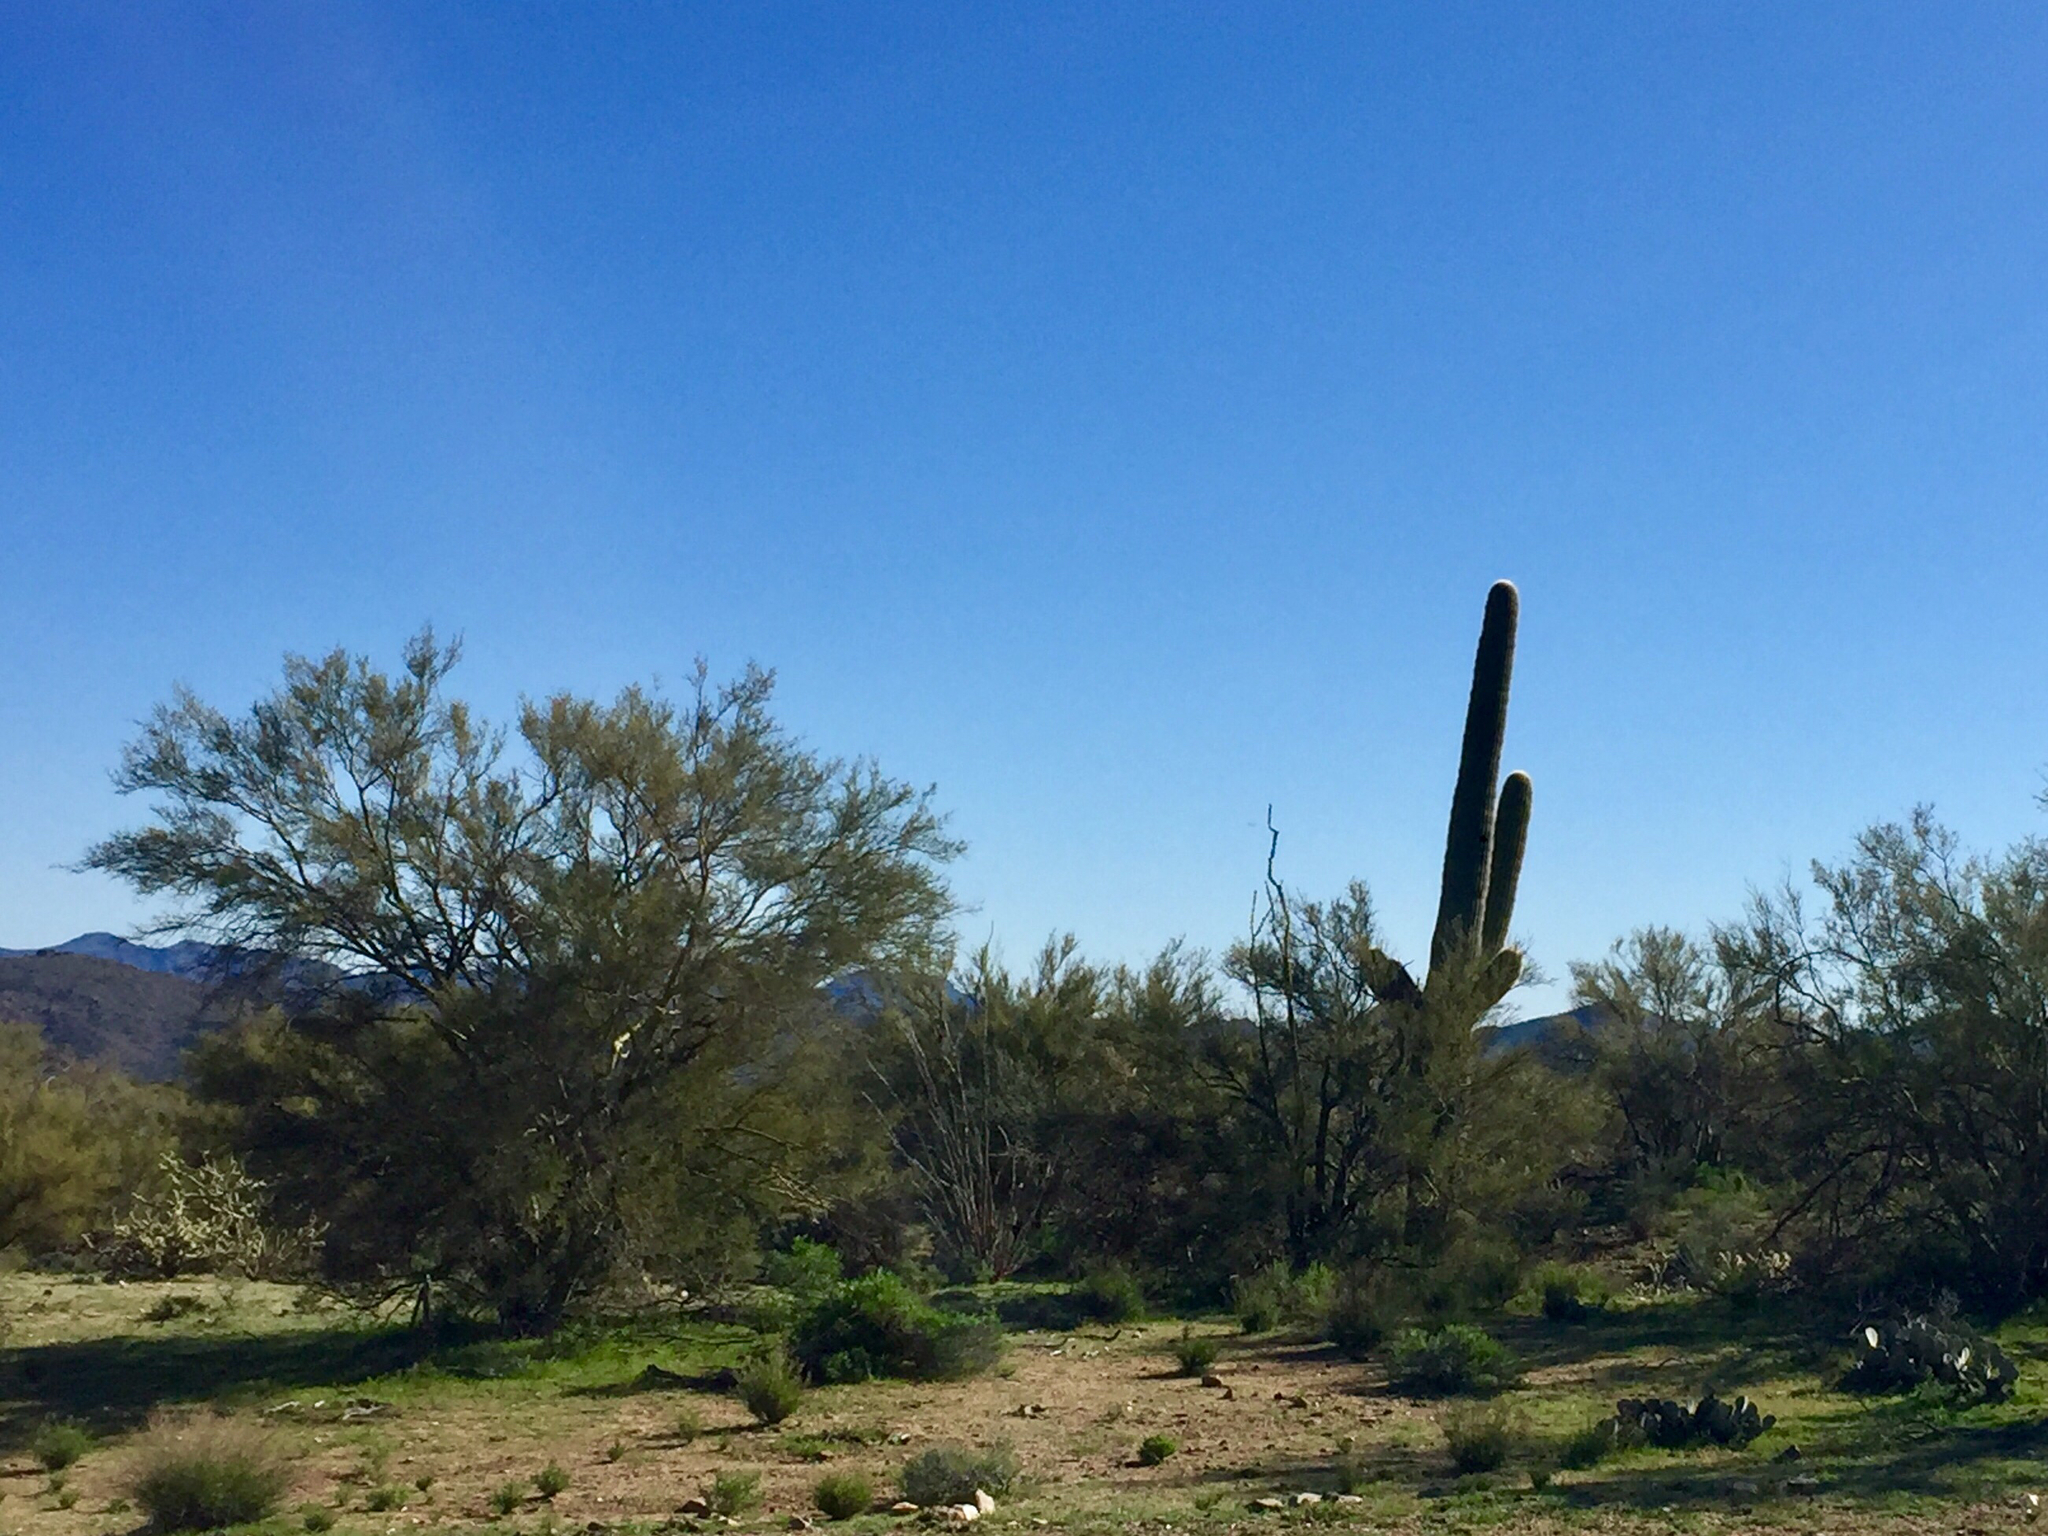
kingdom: Plantae
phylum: Tracheophyta
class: Magnoliopsida
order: Caryophyllales
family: Cactaceae
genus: Carnegiea
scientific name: Carnegiea gigantea
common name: Saguaro
